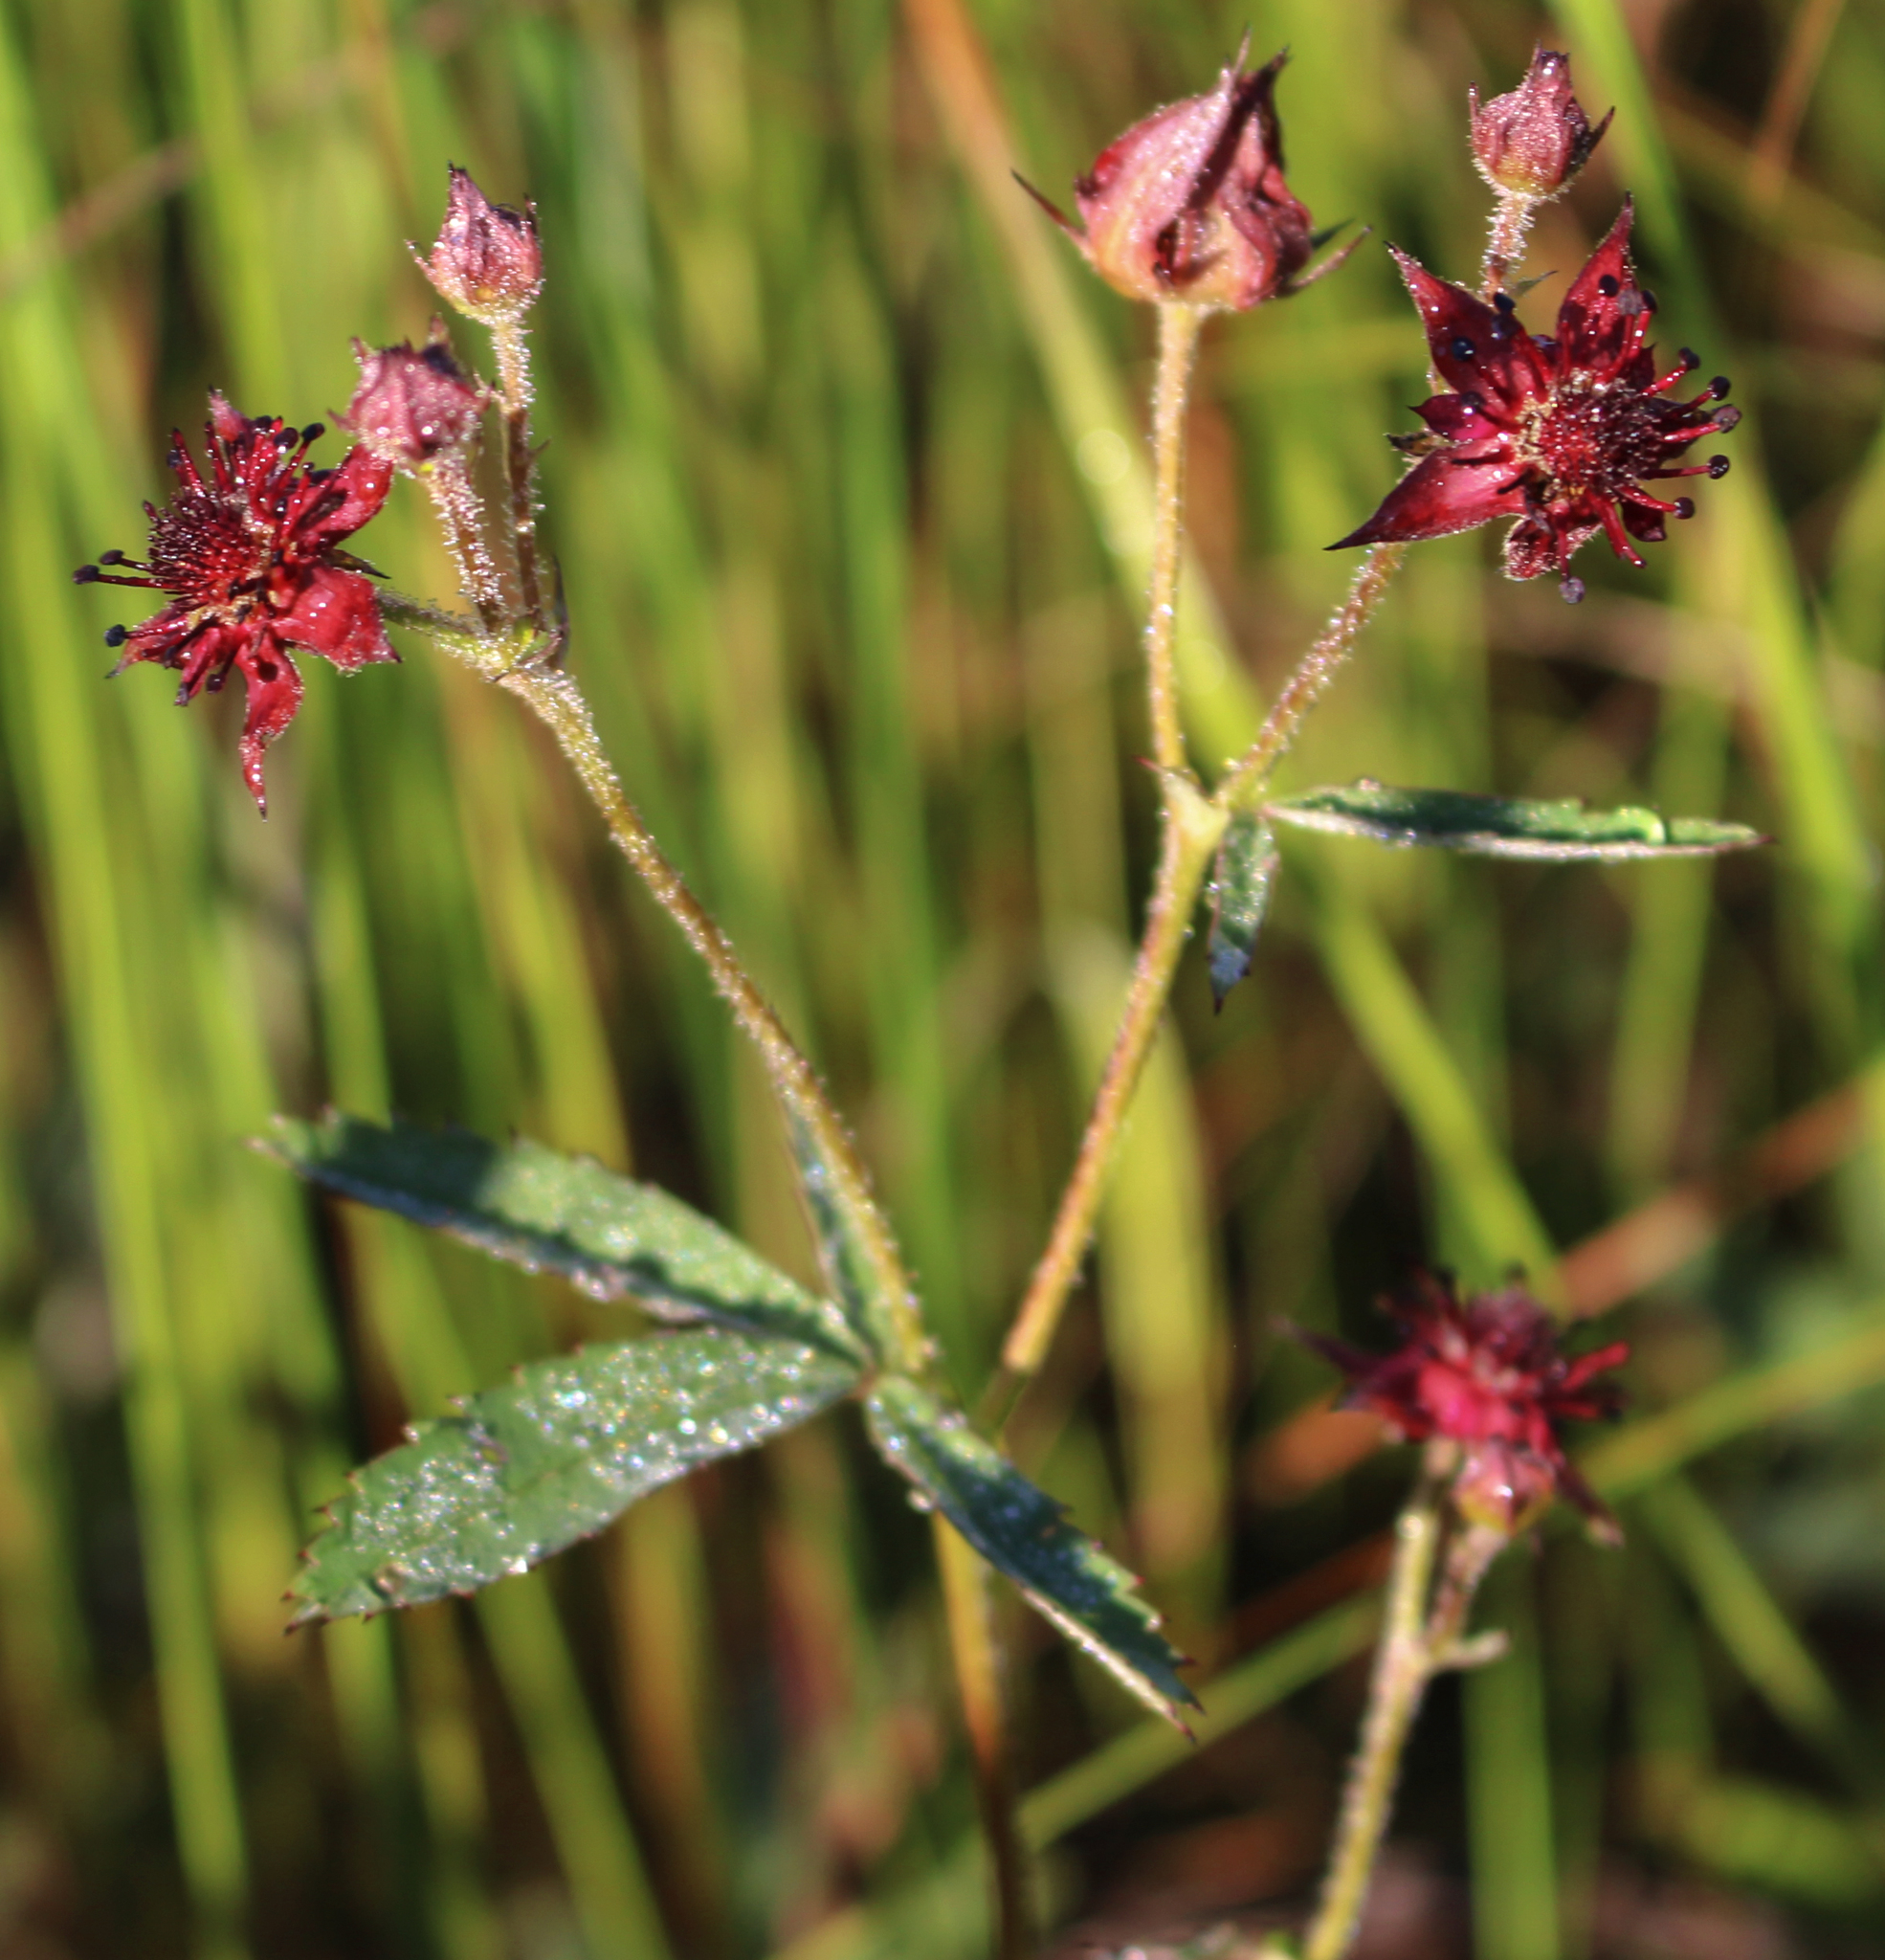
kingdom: Plantae
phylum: Tracheophyta
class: Magnoliopsida
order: Rosales
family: Rosaceae
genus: Comarum
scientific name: Comarum palustre
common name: Marsh cinquefoil
